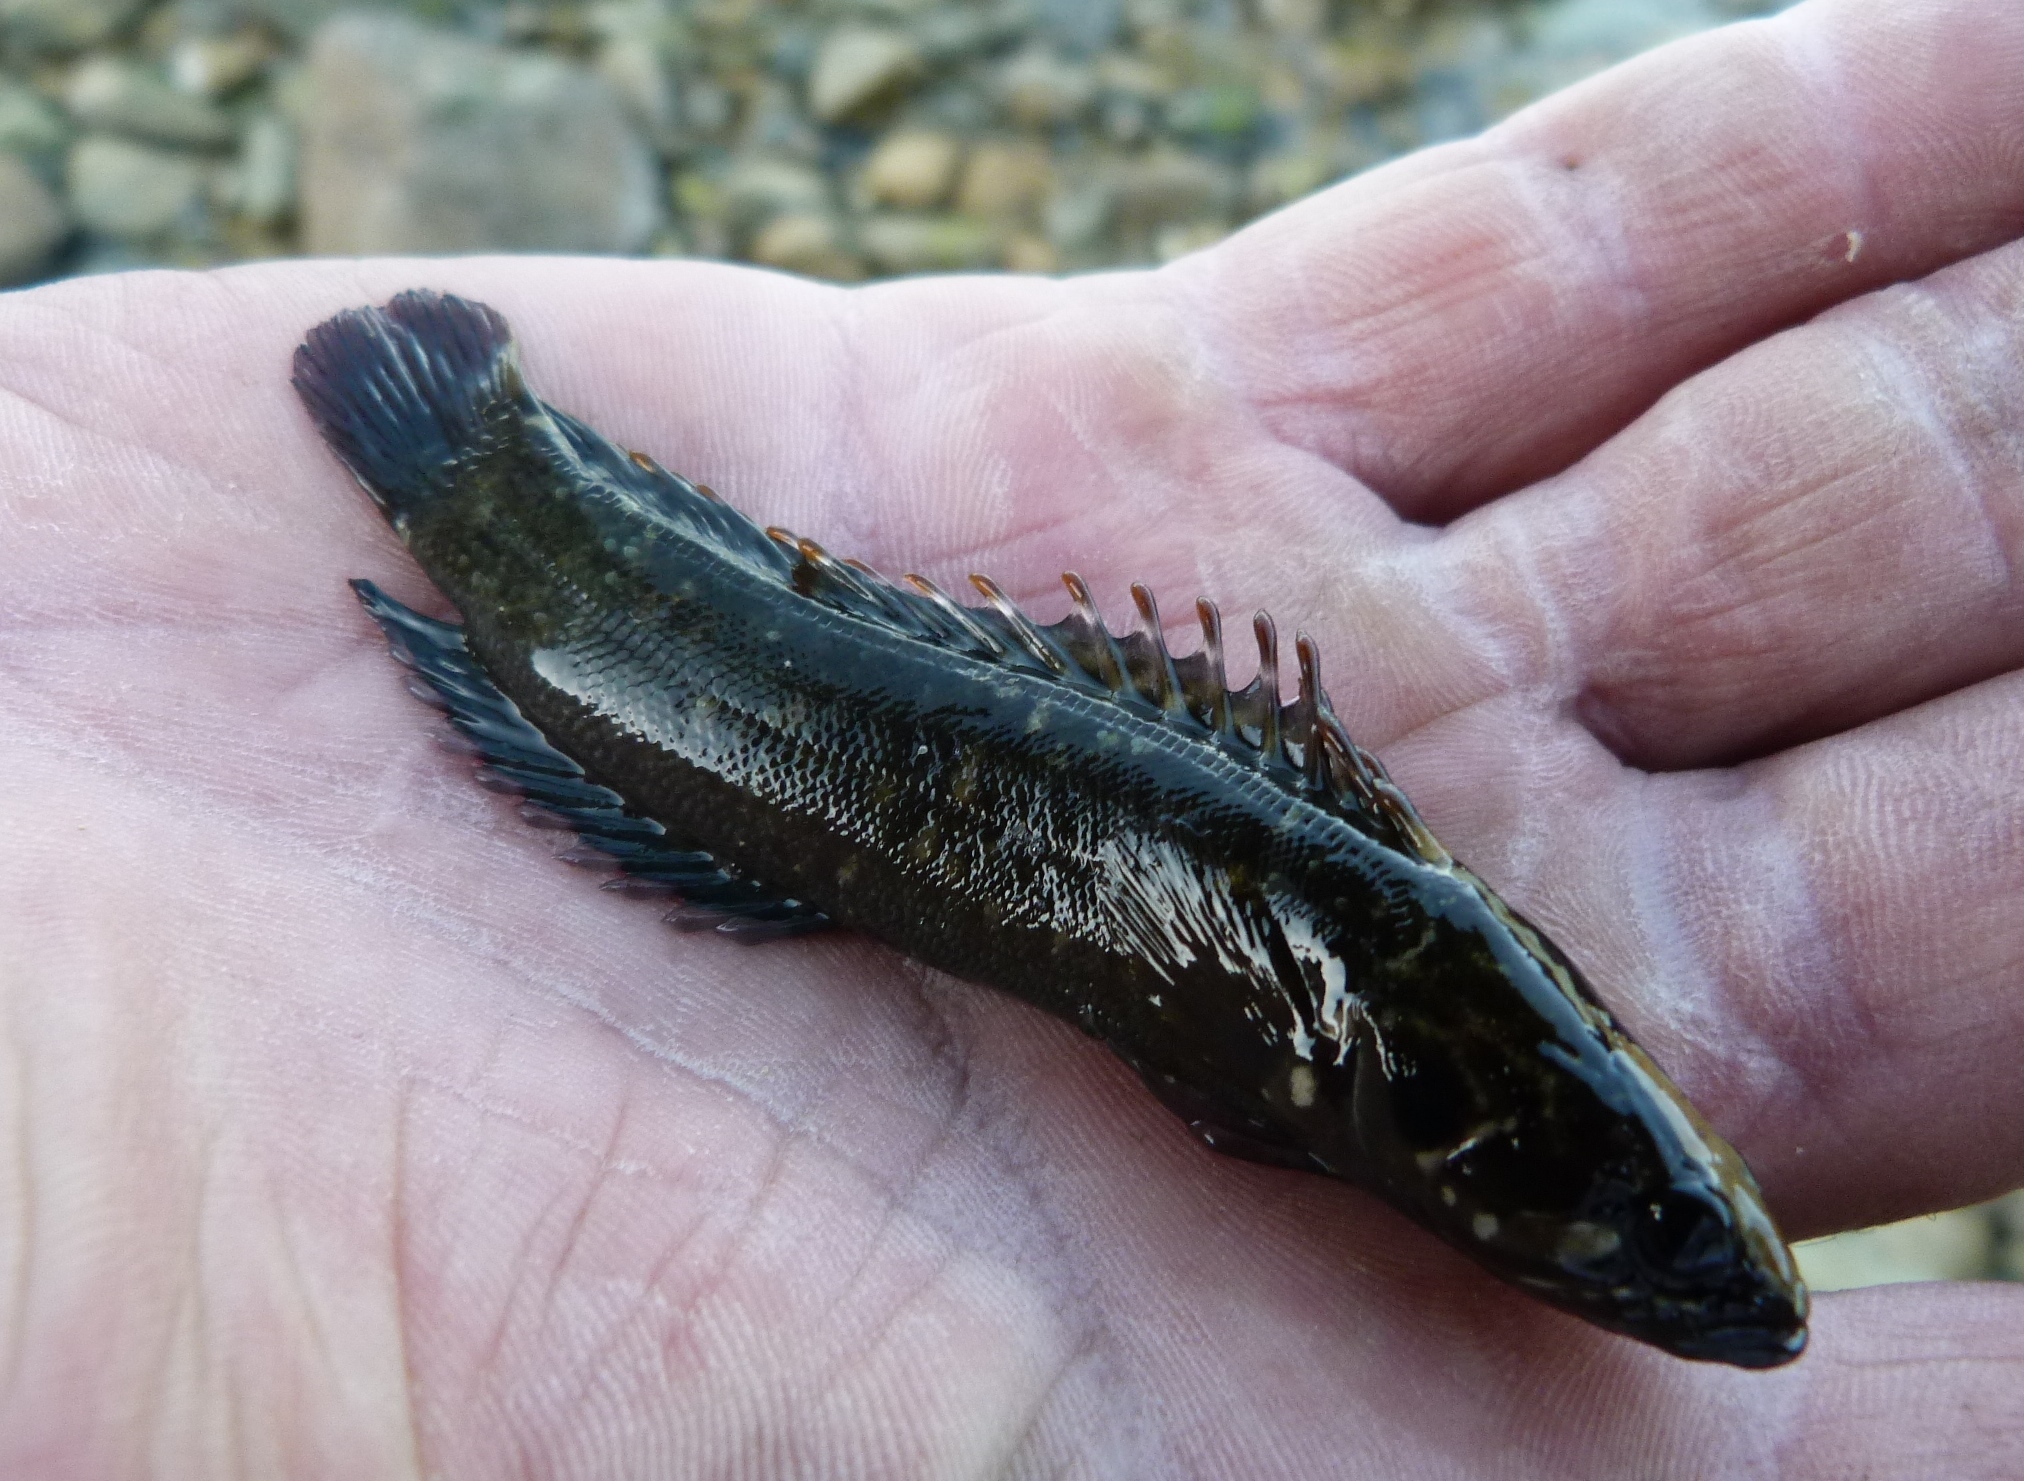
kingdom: Animalia
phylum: Chordata
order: Perciformes
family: Plesiopidae
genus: Acanthoclinus
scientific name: Acanthoclinus fuscus
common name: Olive rockfish
